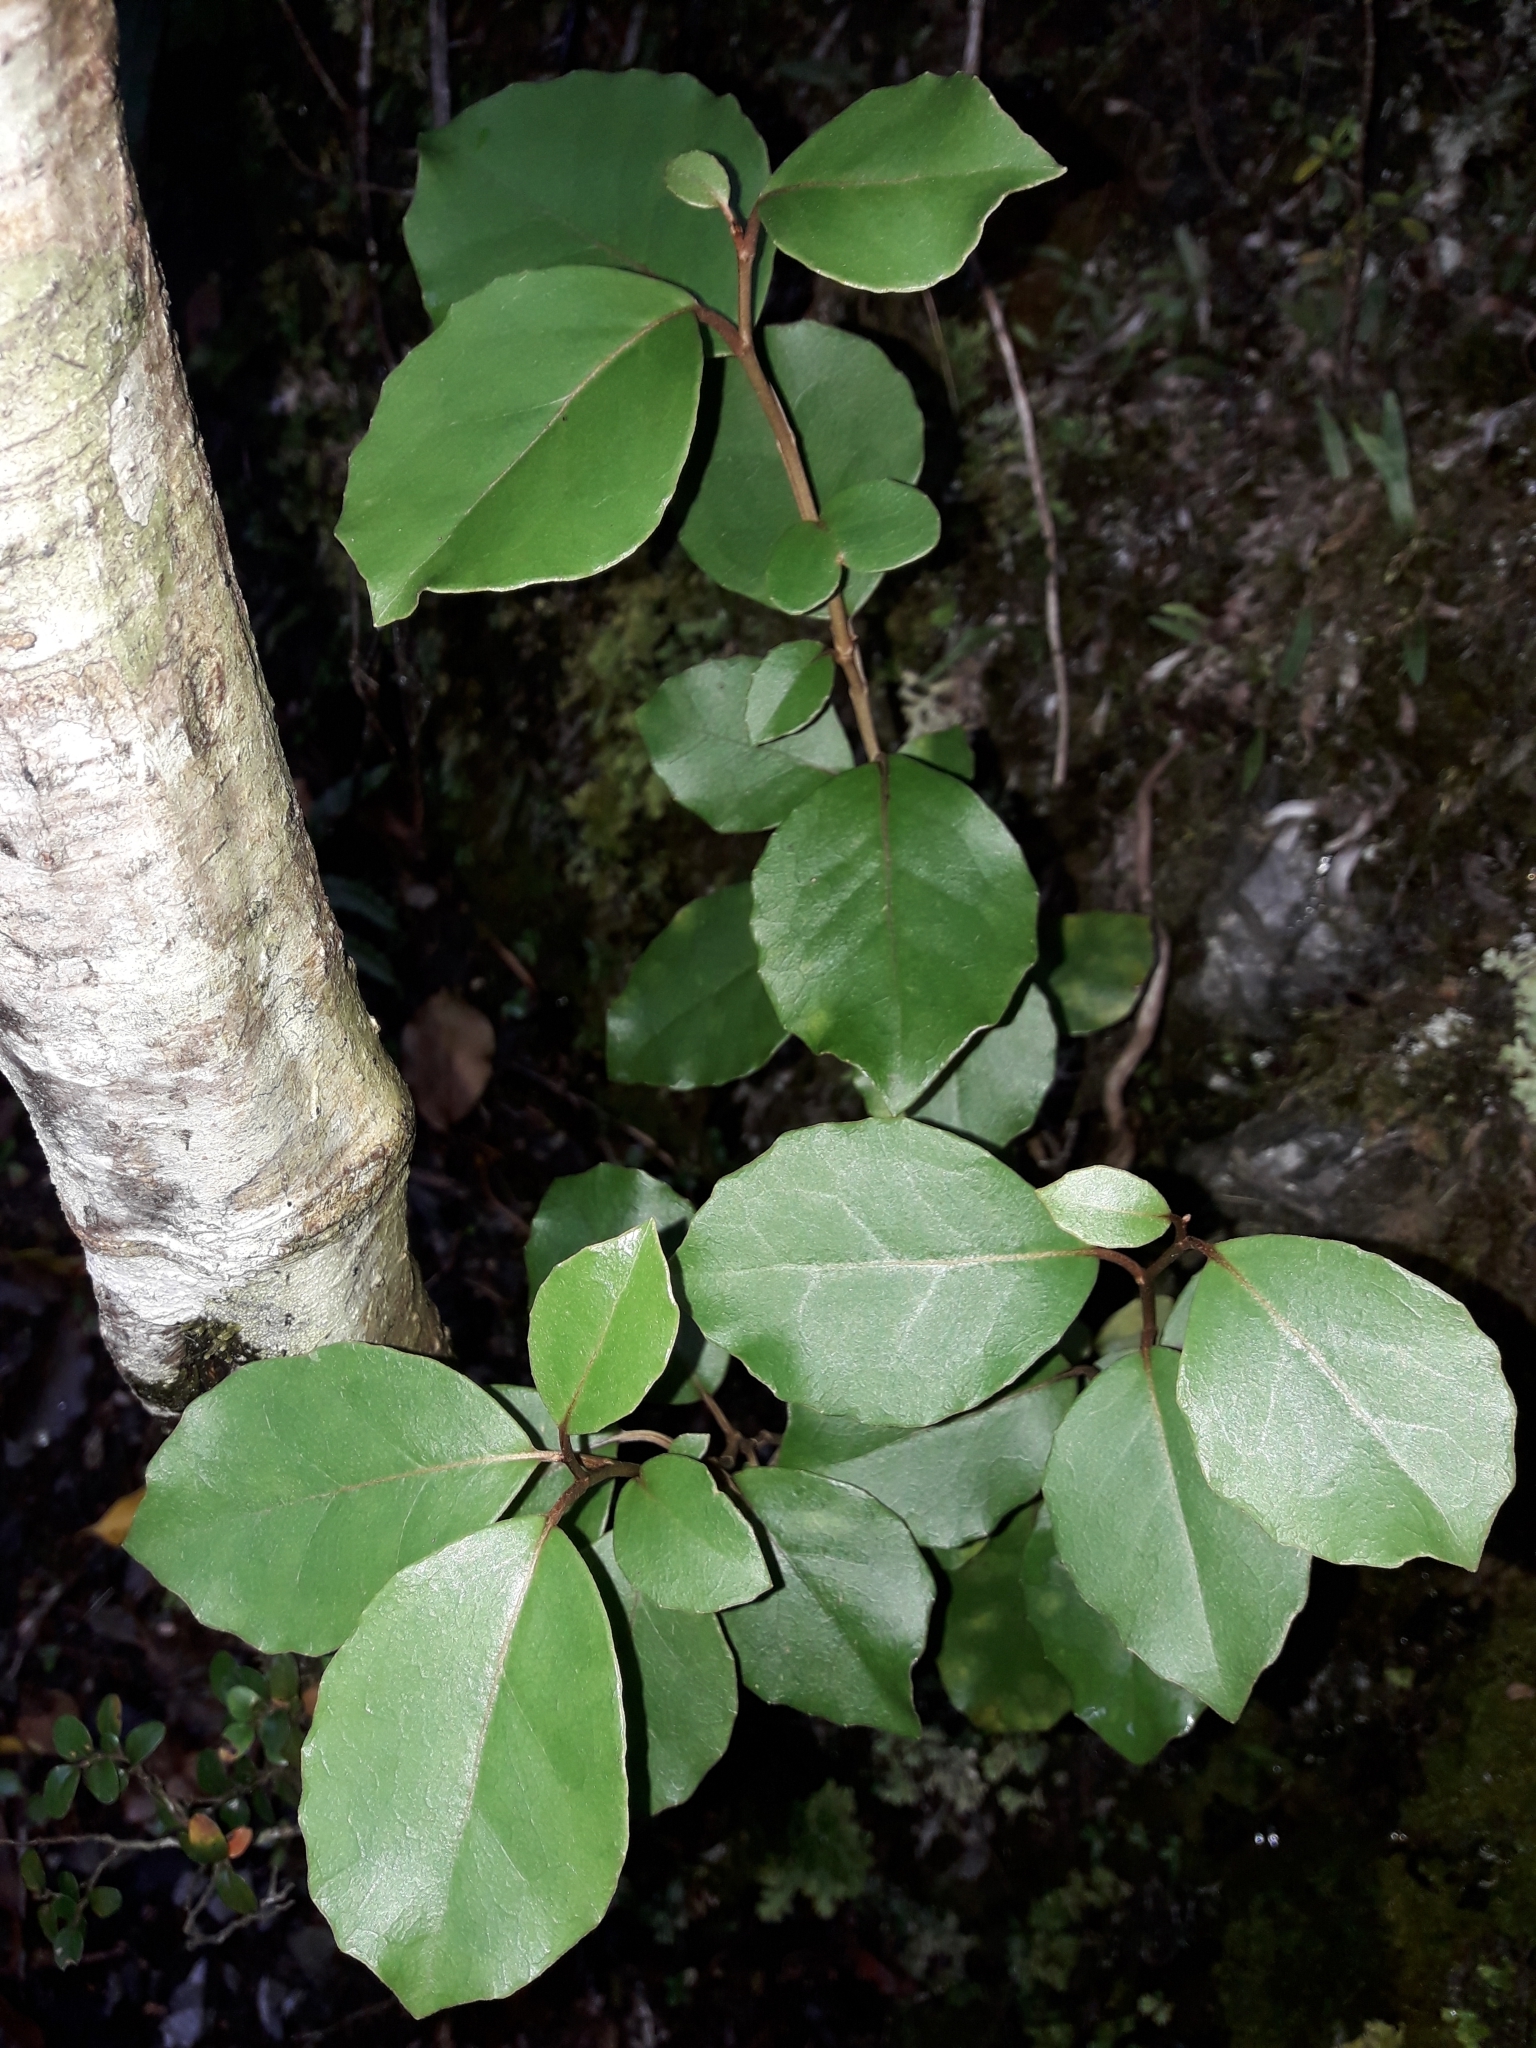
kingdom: Plantae
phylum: Tracheophyta
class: Magnoliopsida
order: Asterales
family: Asteraceae
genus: Olearia
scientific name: Olearia arborescens
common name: Glossy tree daisy
